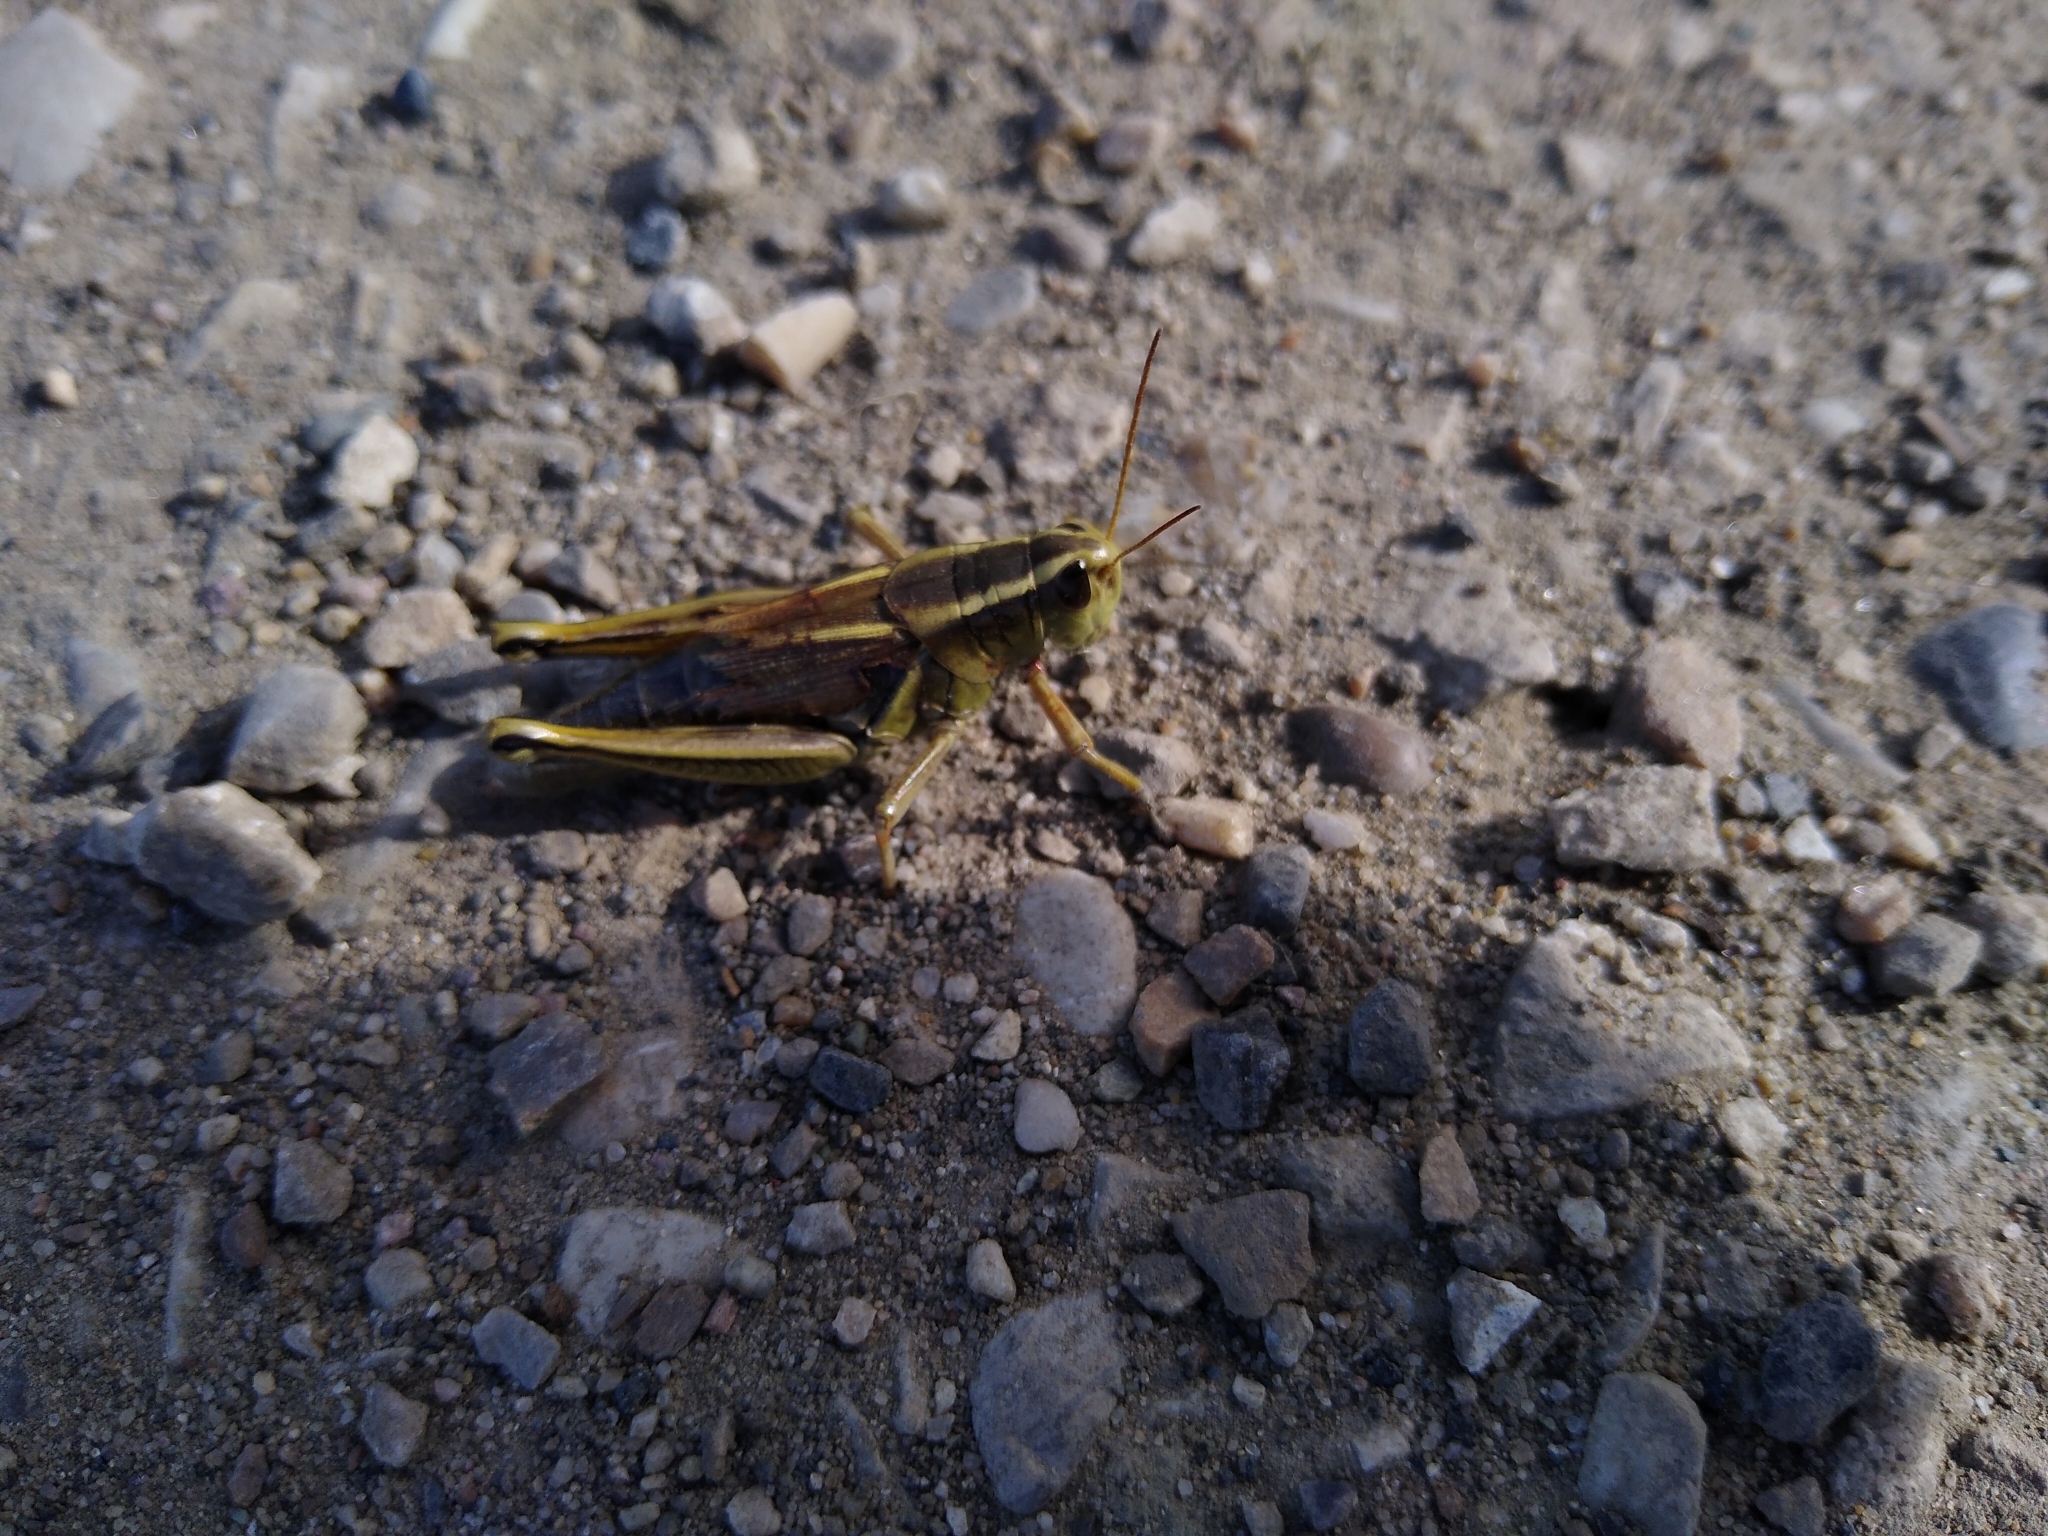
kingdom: Animalia
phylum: Arthropoda
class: Insecta
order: Orthoptera
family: Acrididae
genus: Melanoplus
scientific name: Melanoplus bivittatus
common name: Two-striped grasshopper
